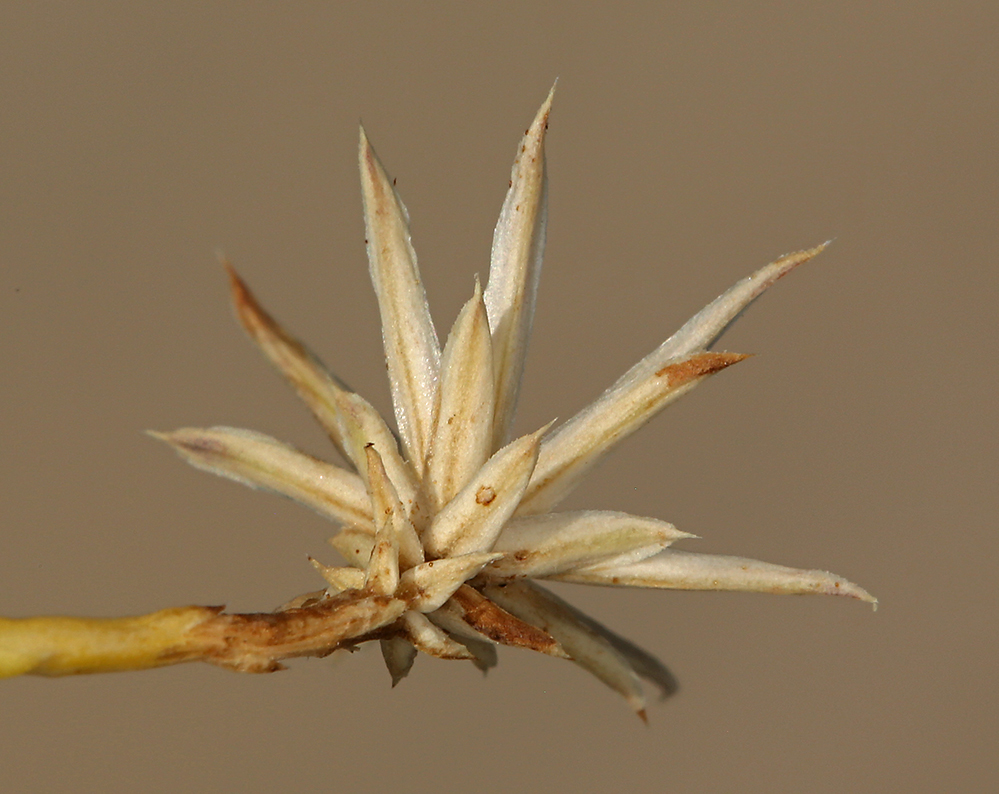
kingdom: Plantae
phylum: Tracheophyta
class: Magnoliopsida
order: Asterales
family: Asteraceae
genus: Leucosyris
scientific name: Leucosyris carnosa
